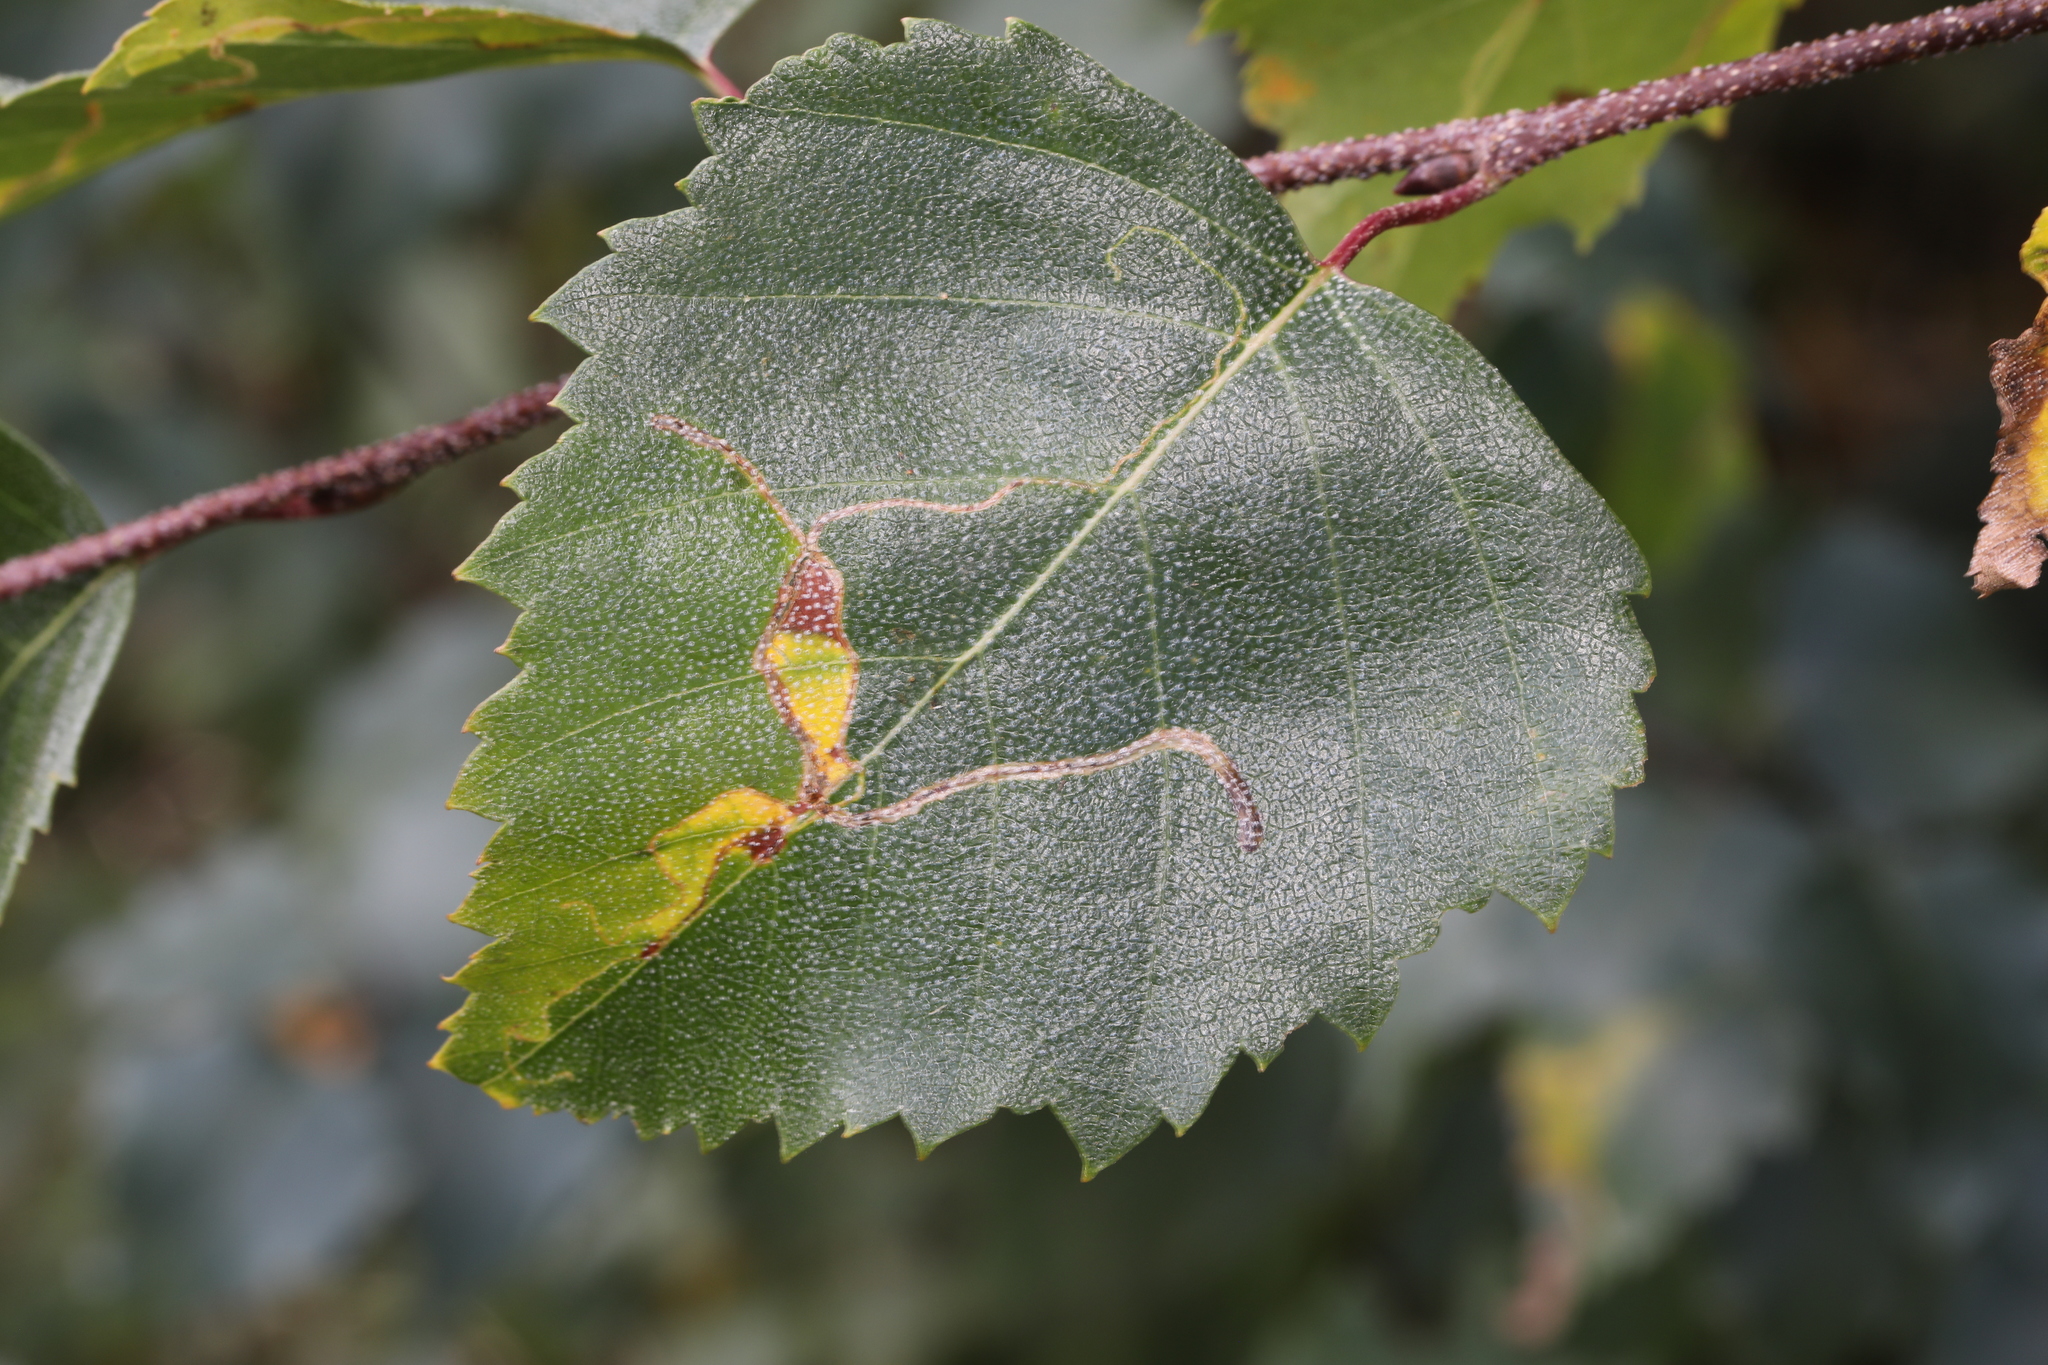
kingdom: Animalia
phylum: Arthropoda
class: Insecta
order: Lepidoptera
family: Lyonetiidae
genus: Lyonetia
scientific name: Lyonetia clerkella
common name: Apple leaf miner
